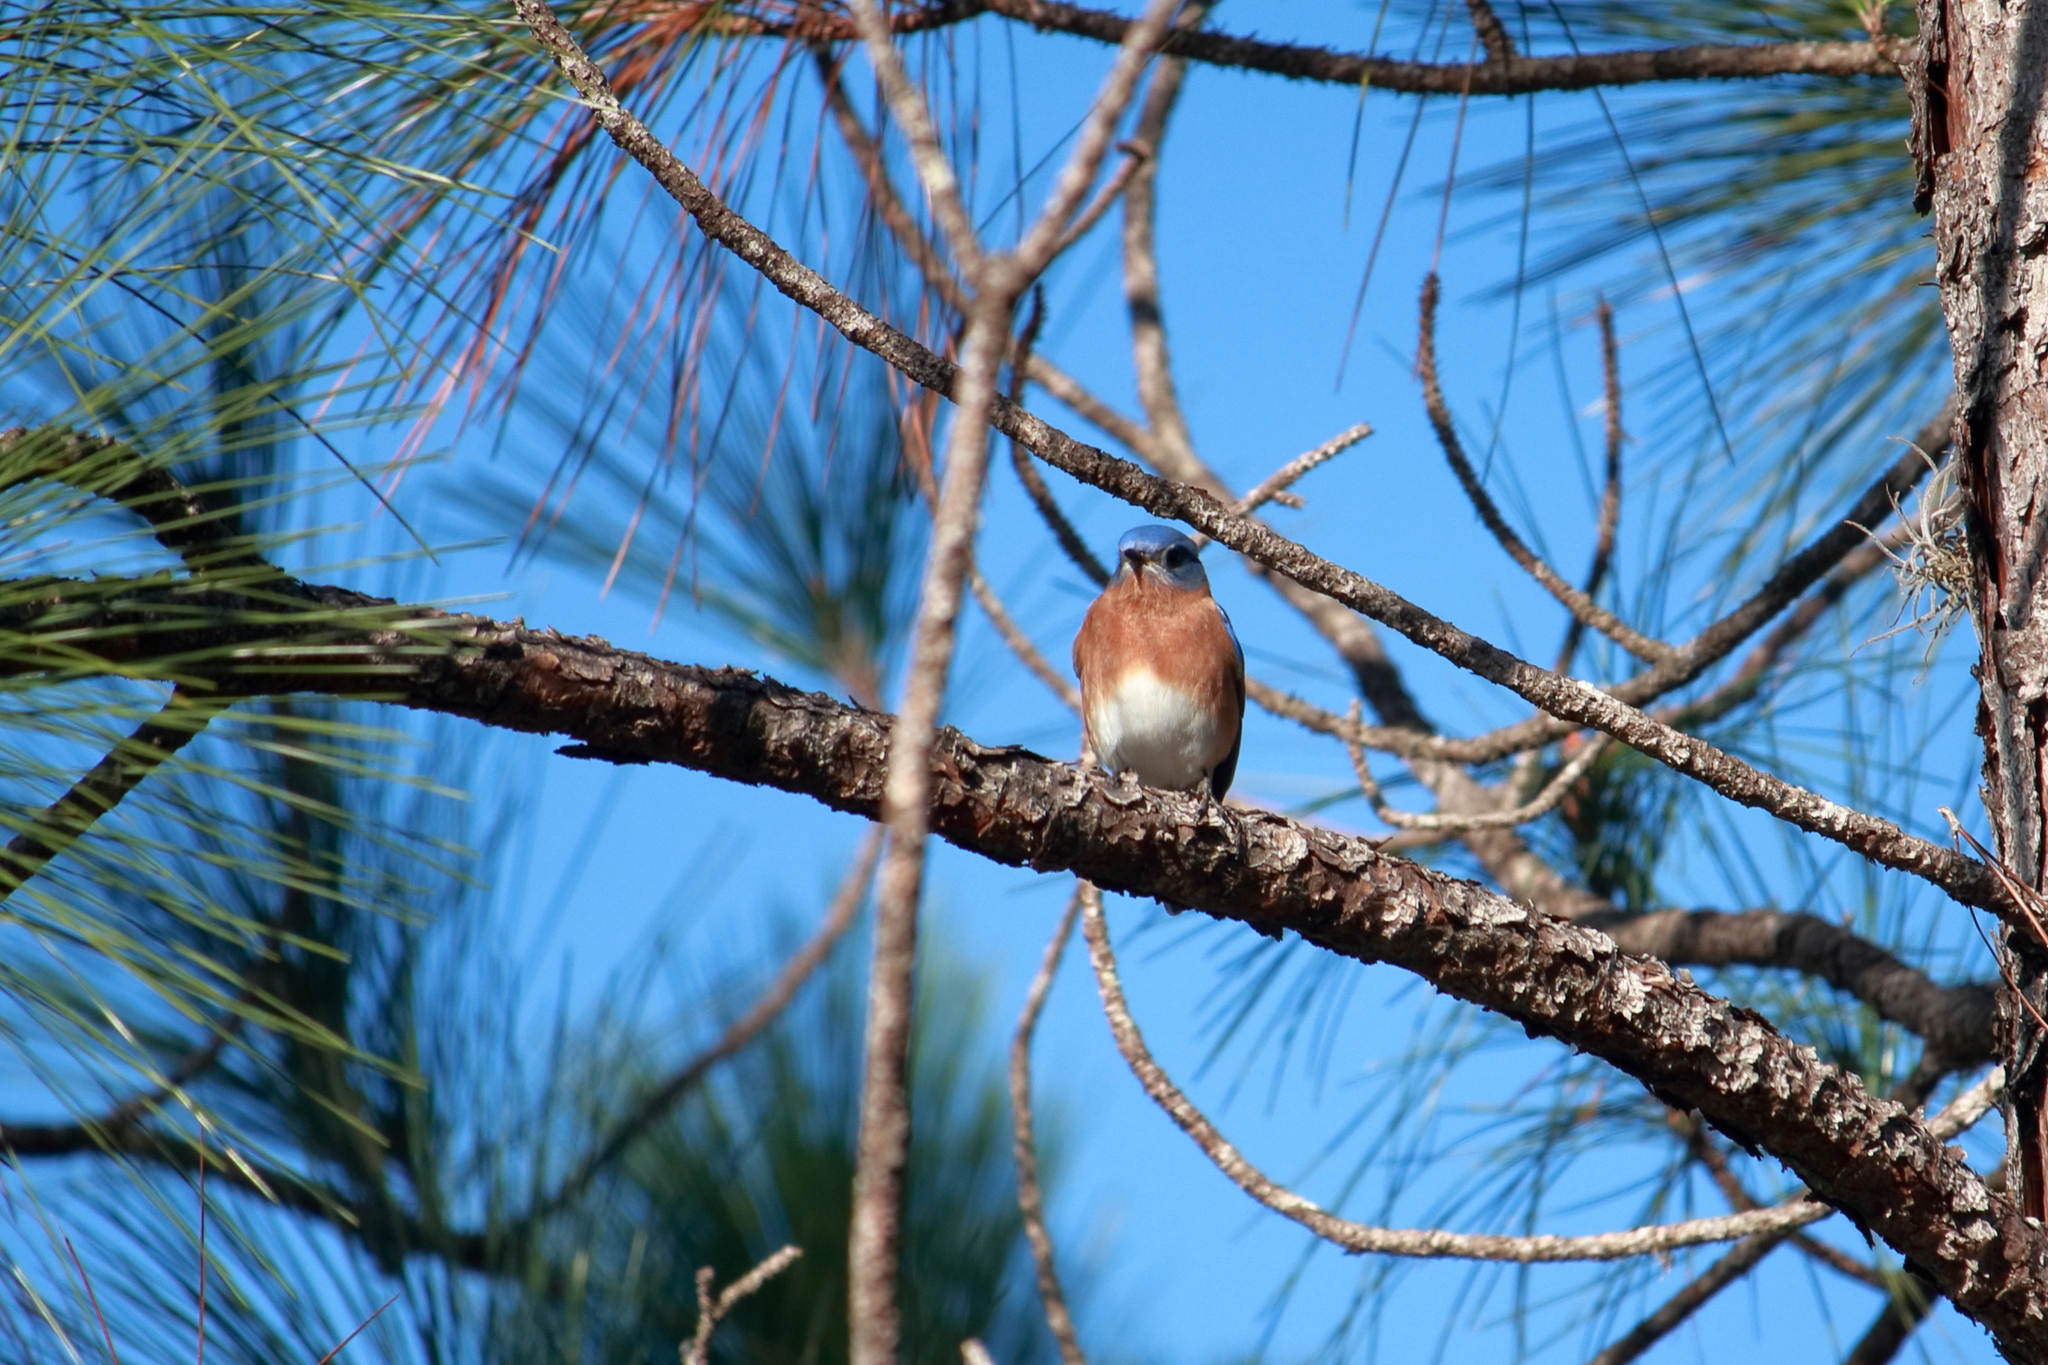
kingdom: Animalia
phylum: Chordata
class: Aves
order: Passeriformes
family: Turdidae
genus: Sialia
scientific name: Sialia sialis
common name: Eastern bluebird
